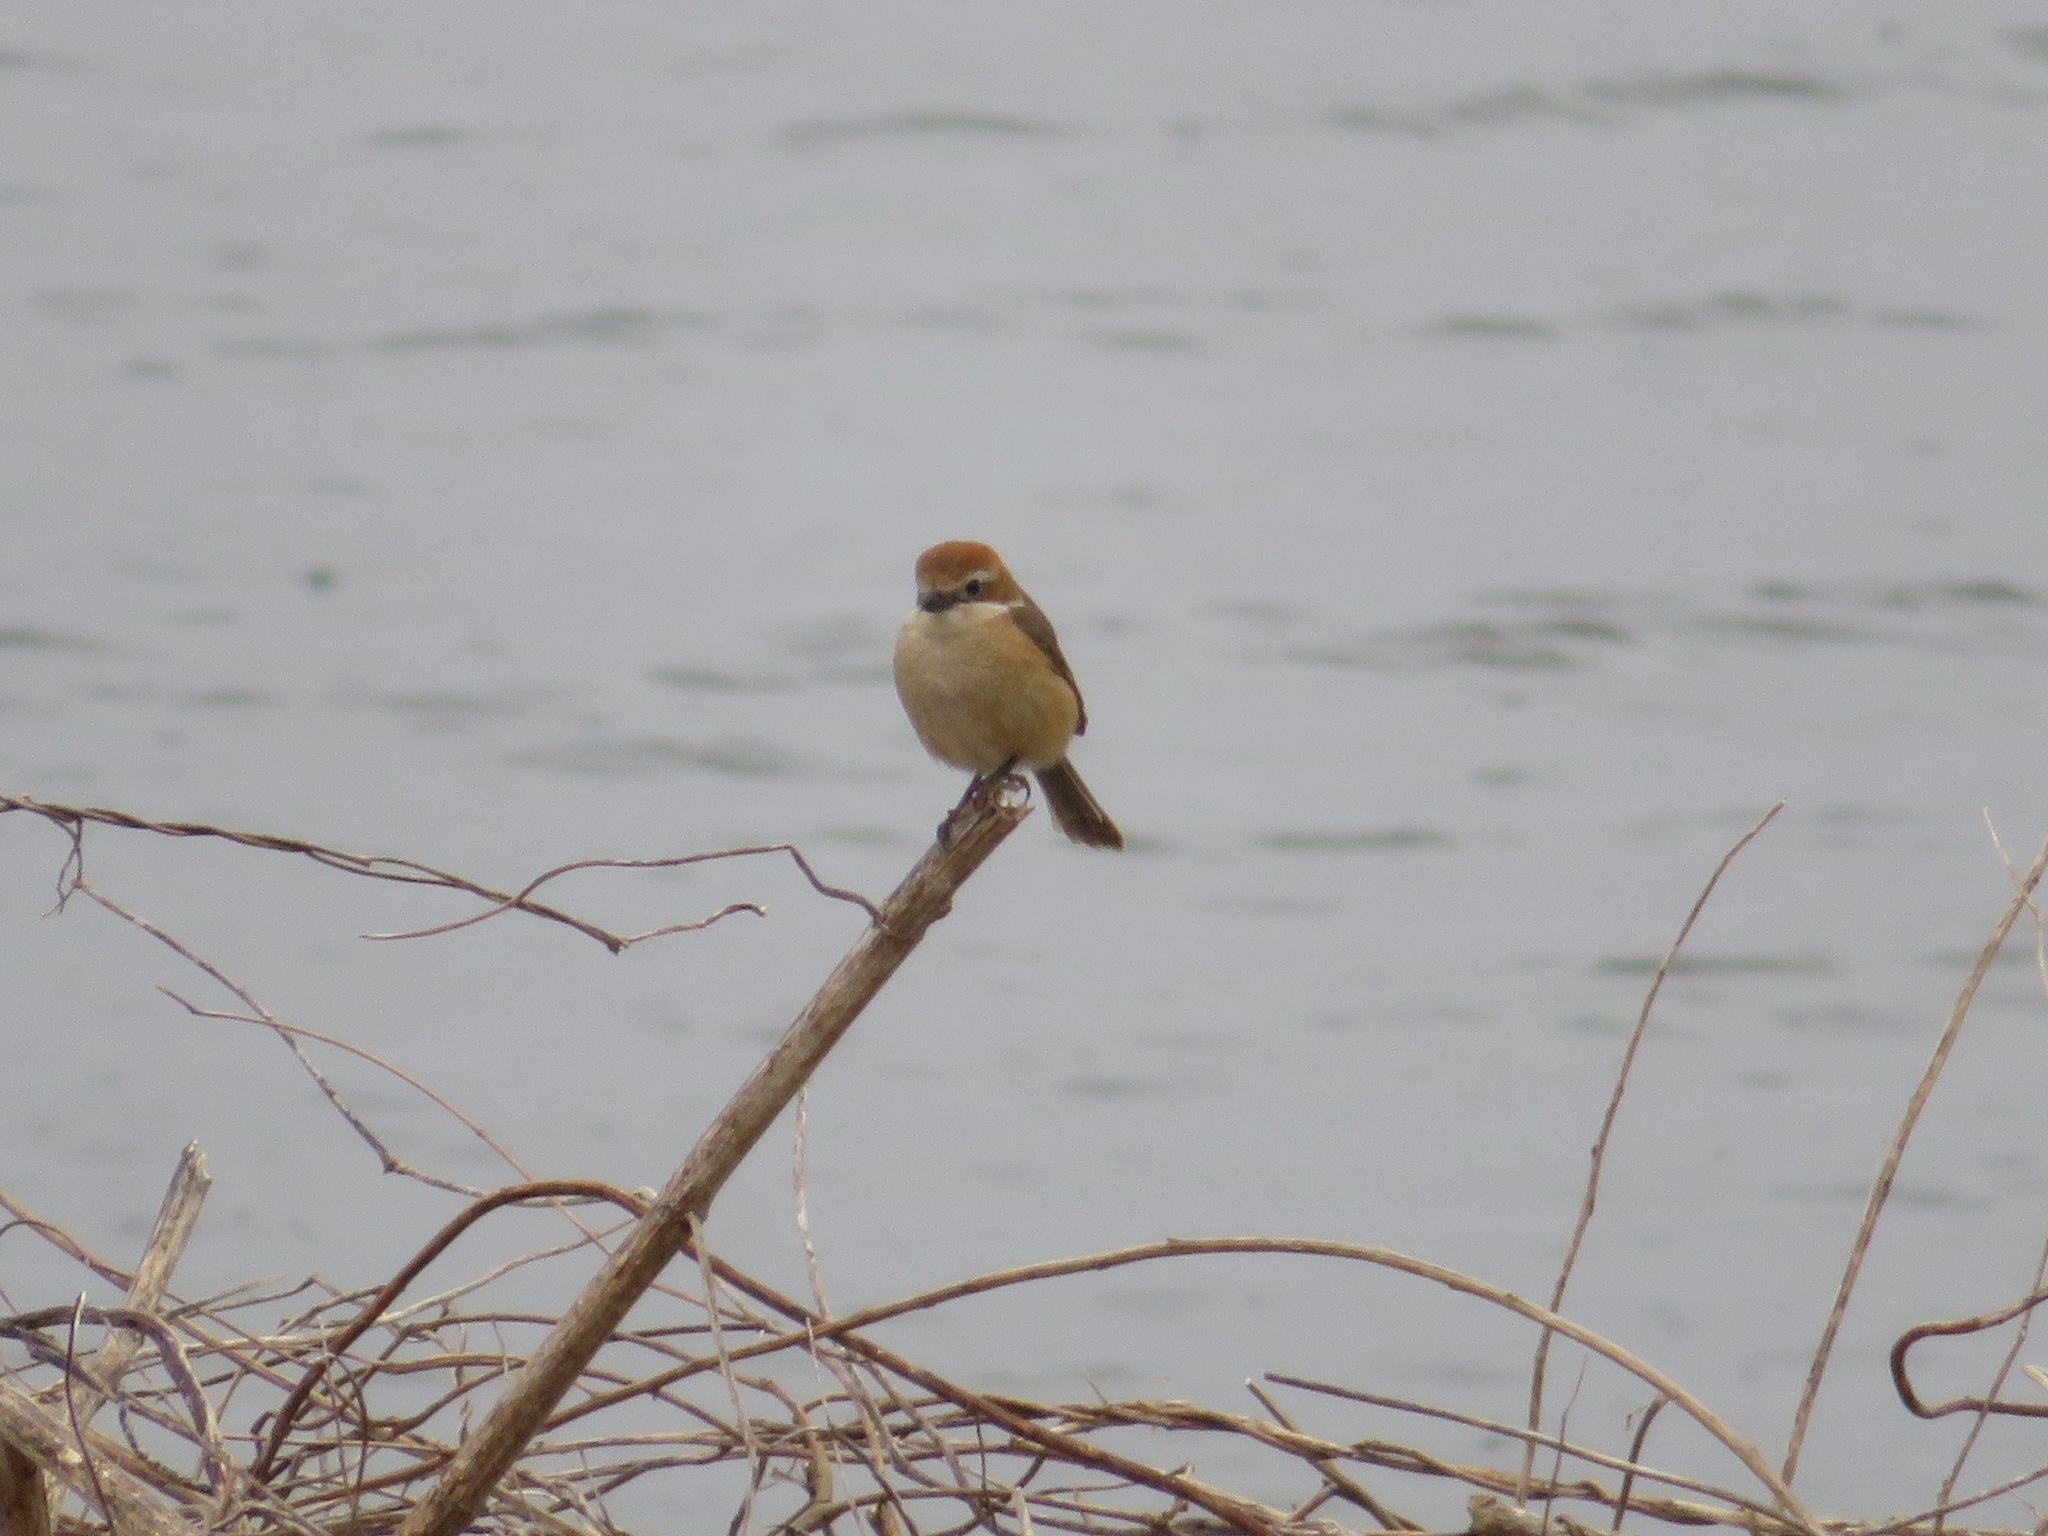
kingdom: Animalia
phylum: Chordata
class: Aves
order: Passeriformes
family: Laniidae
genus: Lanius
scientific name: Lanius bucephalus
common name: Bull-headed shrike
